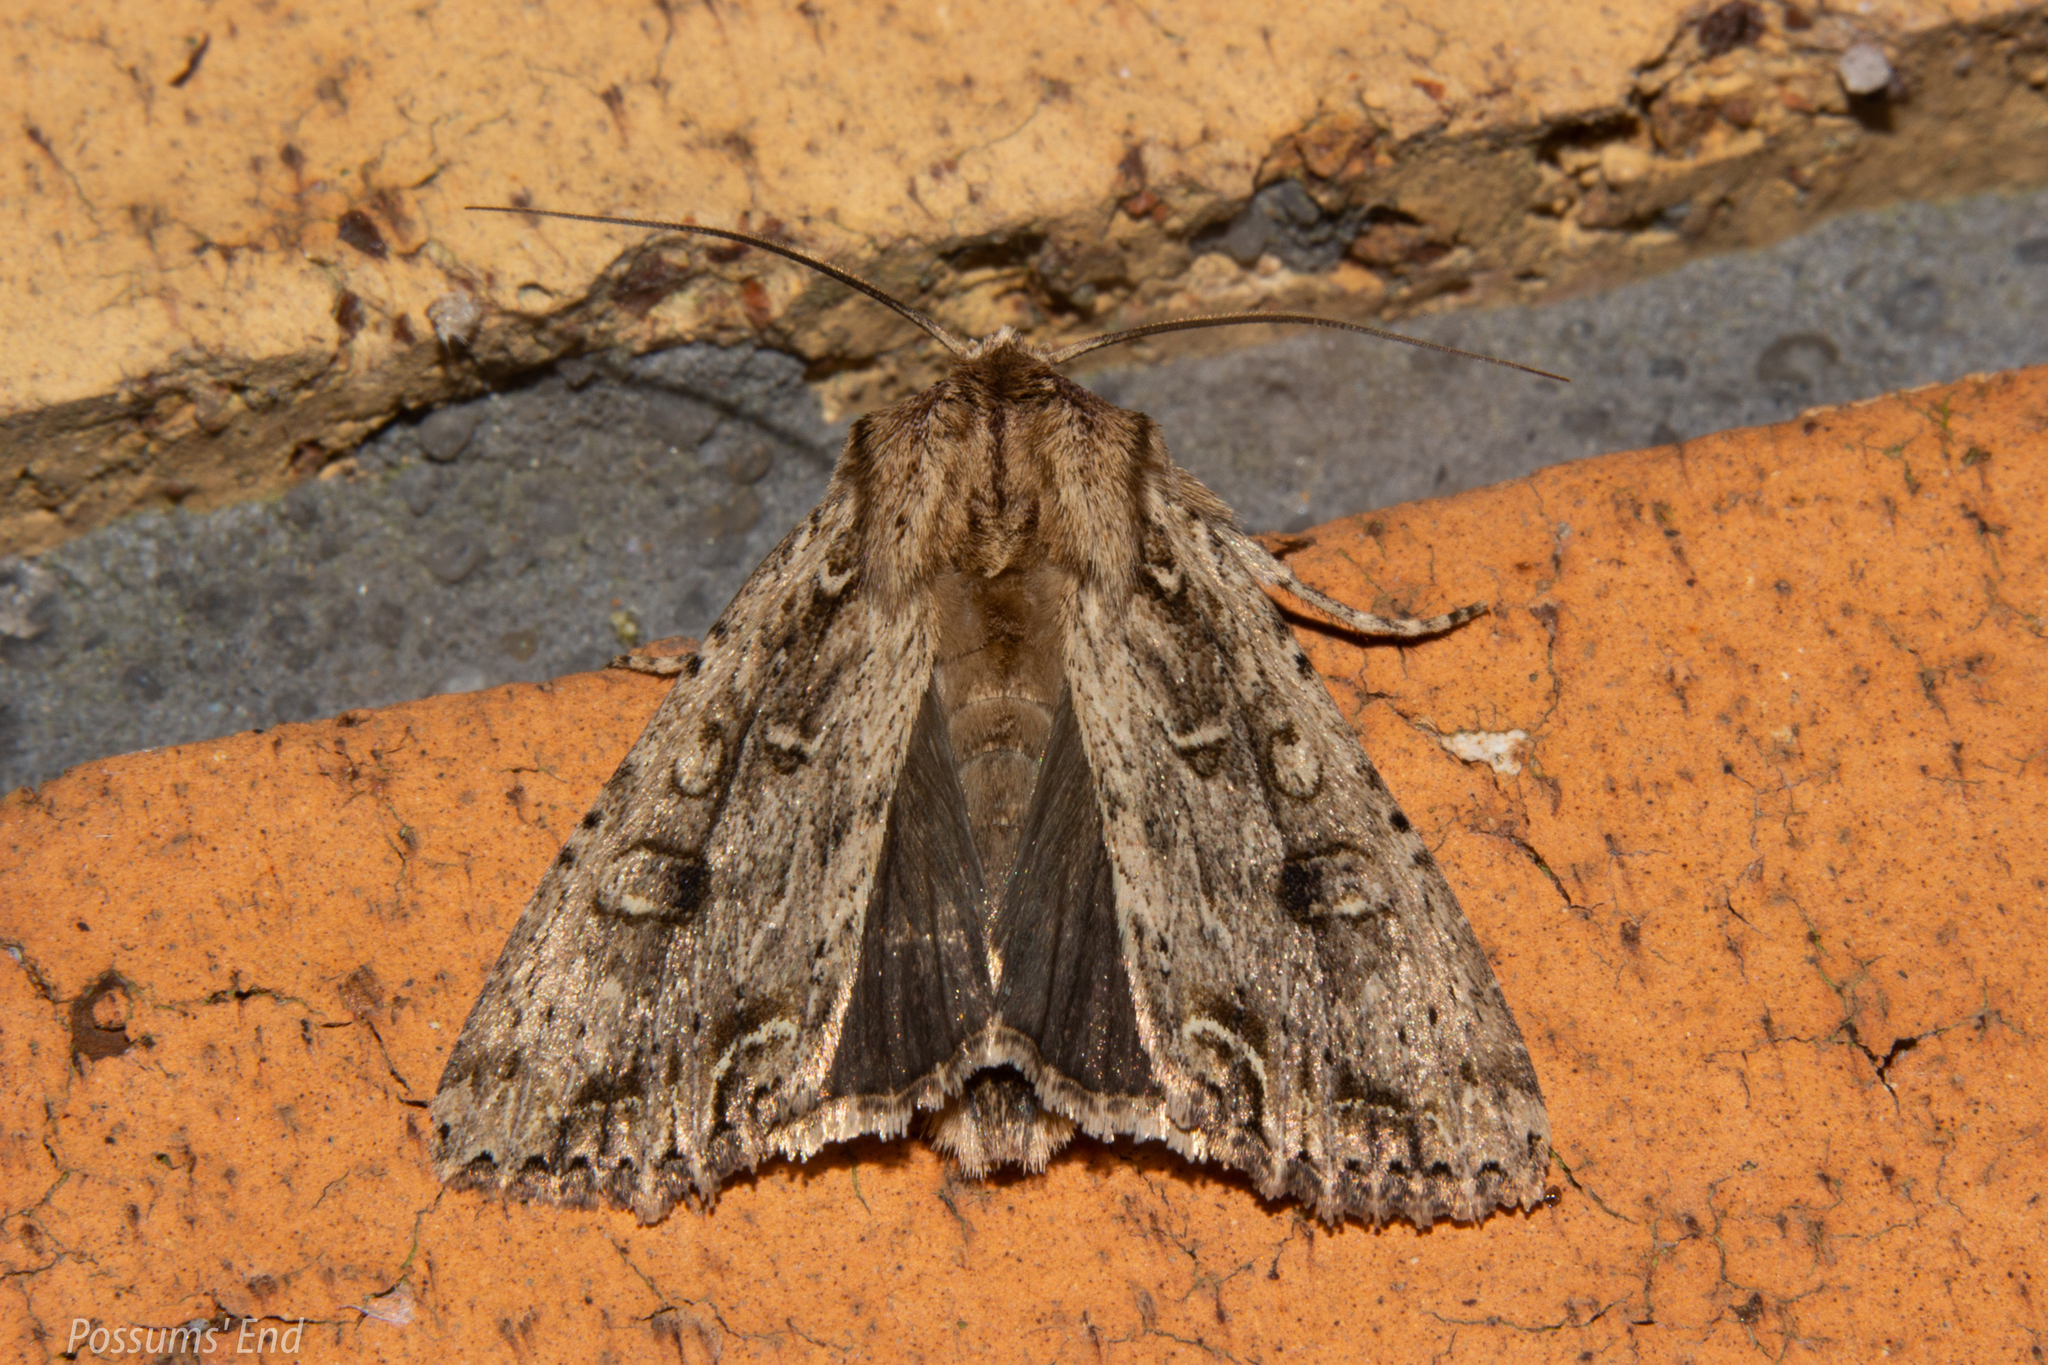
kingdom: Animalia
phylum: Arthropoda
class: Insecta
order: Lepidoptera
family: Noctuidae
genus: Ichneutica
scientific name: Ichneutica lignana
